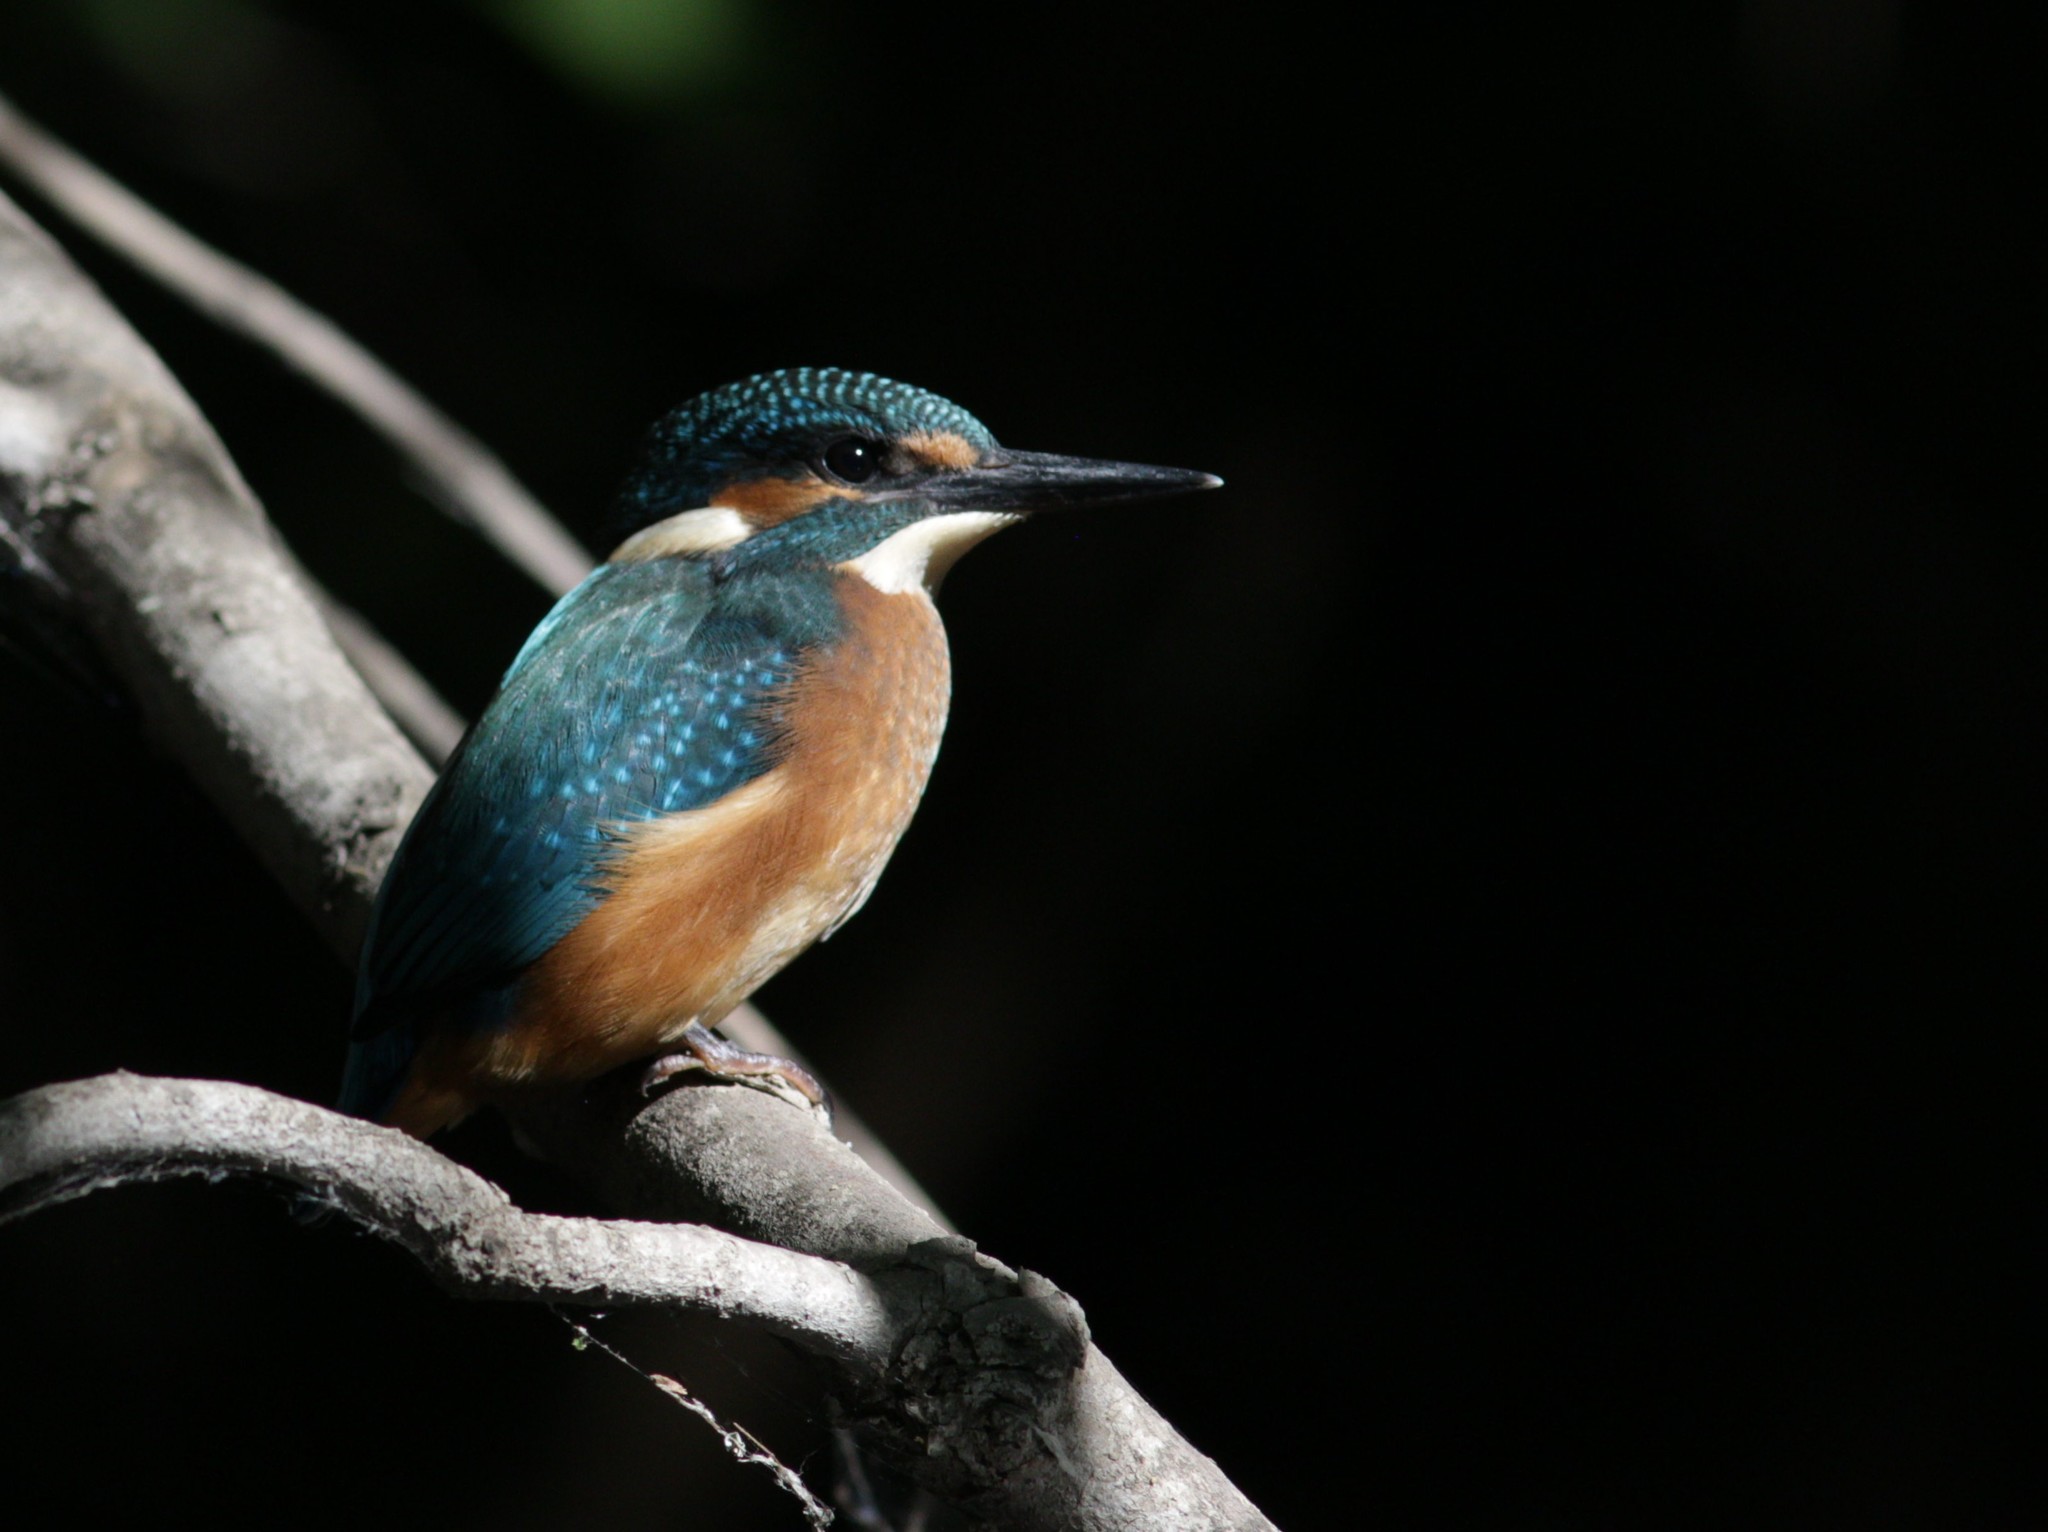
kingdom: Animalia
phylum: Chordata
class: Aves
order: Coraciiformes
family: Alcedinidae
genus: Alcedo
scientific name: Alcedo atthis
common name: Common kingfisher
